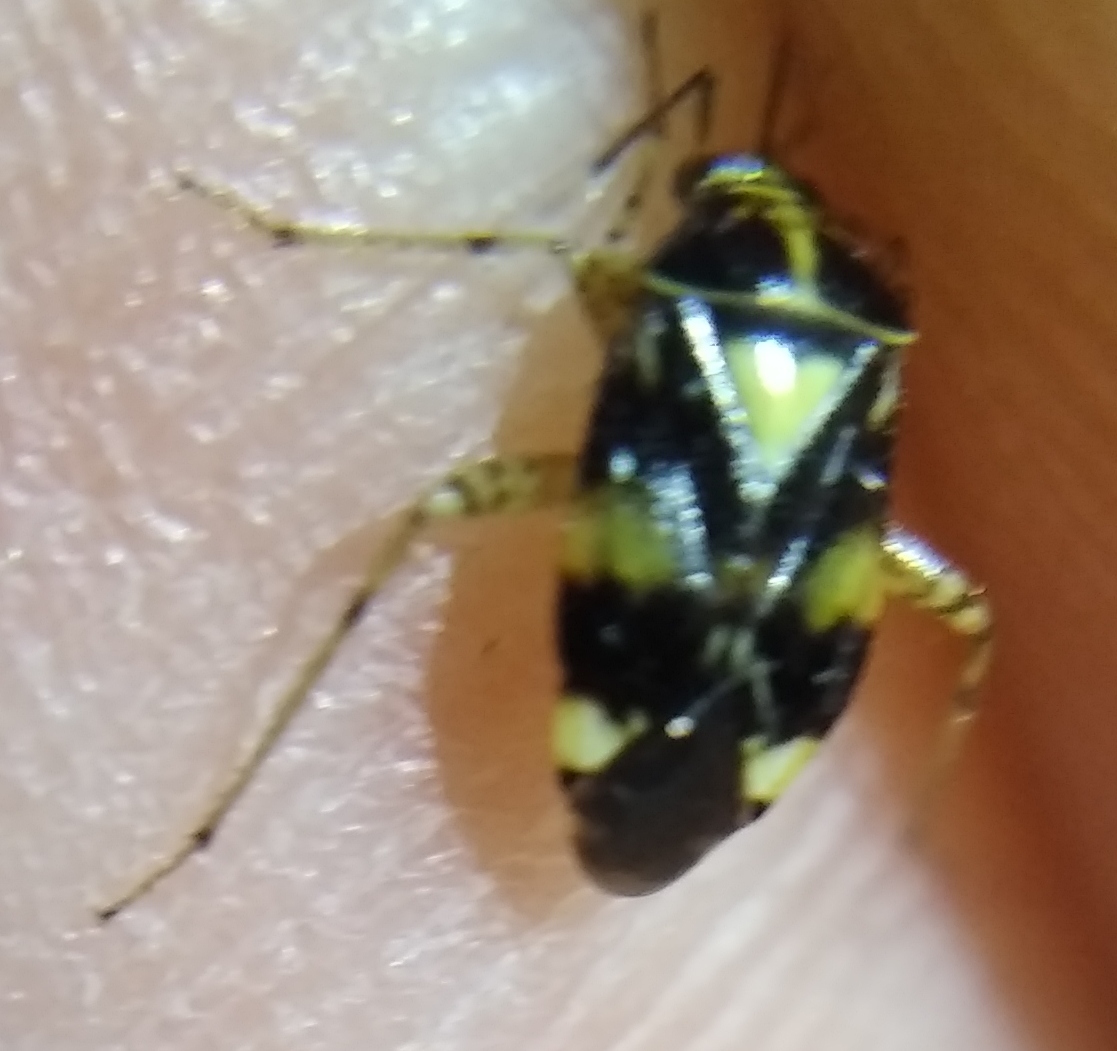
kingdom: Animalia
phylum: Arthropoda
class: Insecta
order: Hemiptera
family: Miridae
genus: Liocoris
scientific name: Liocoris tripustulatus
